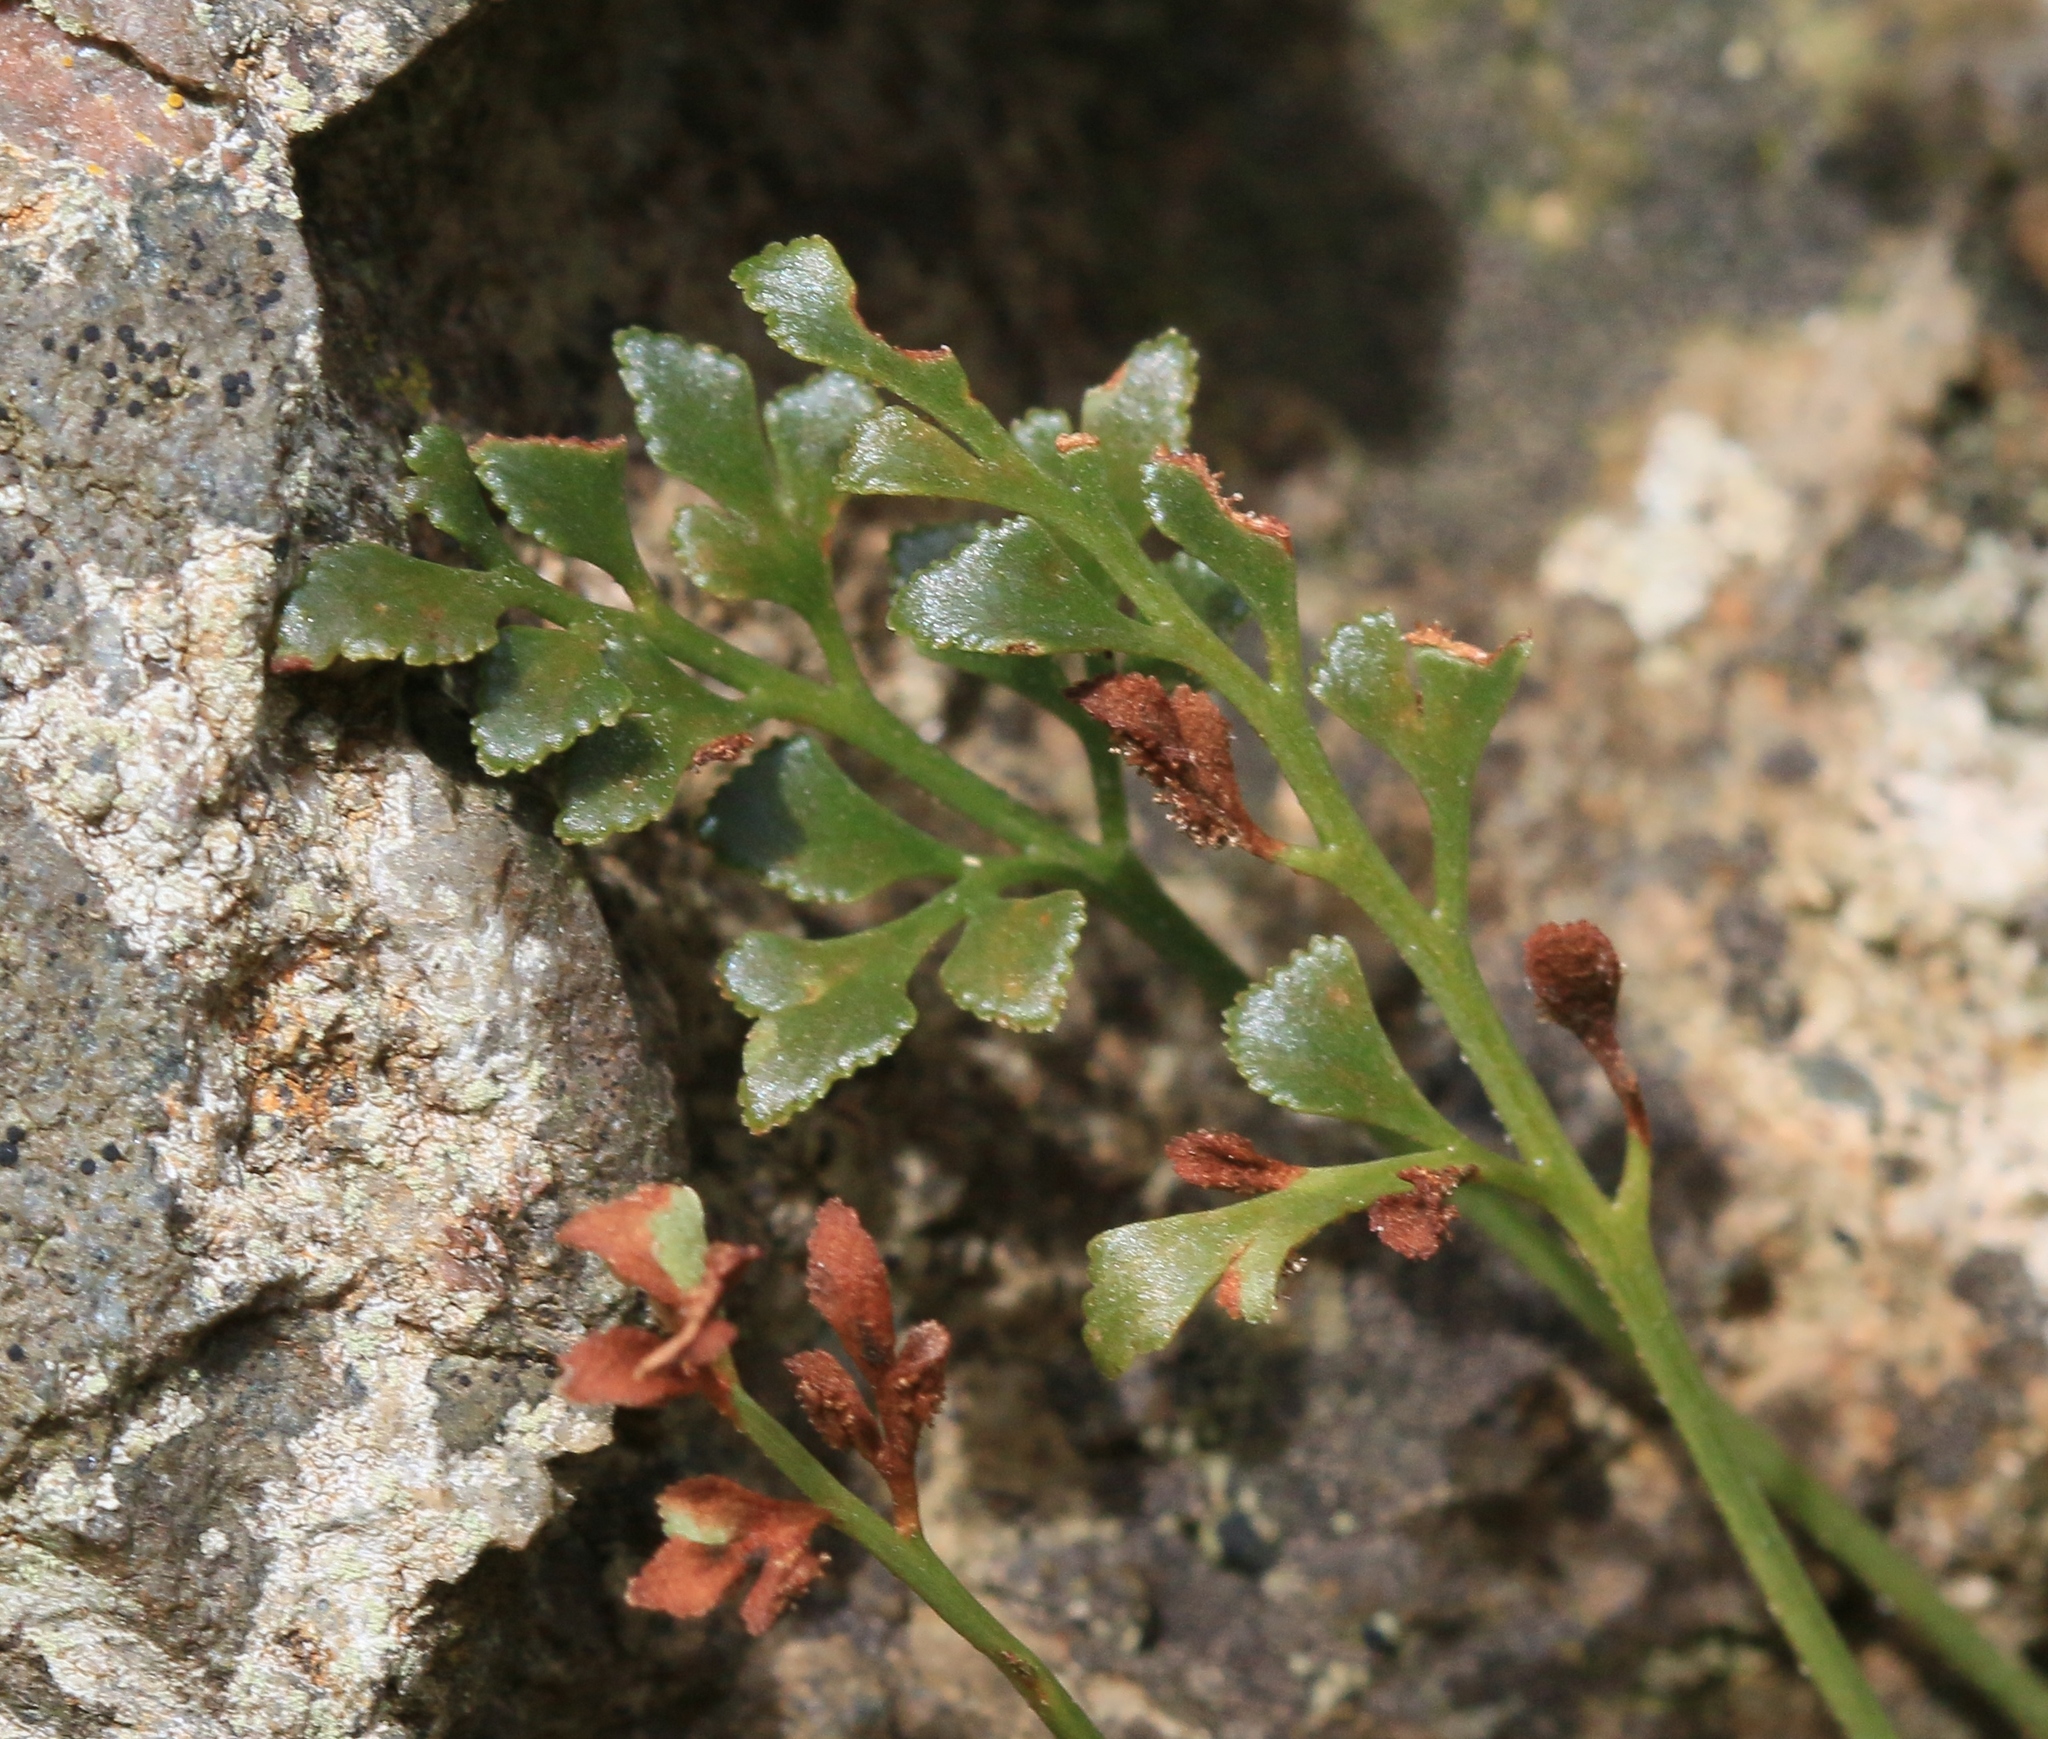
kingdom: Plantae
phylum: Tracheophyta
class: Polypodiopsida
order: Polypodiales
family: Aspleniaceae
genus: Asplenium
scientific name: Asplenium ruta-muraria
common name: Wall-rue
